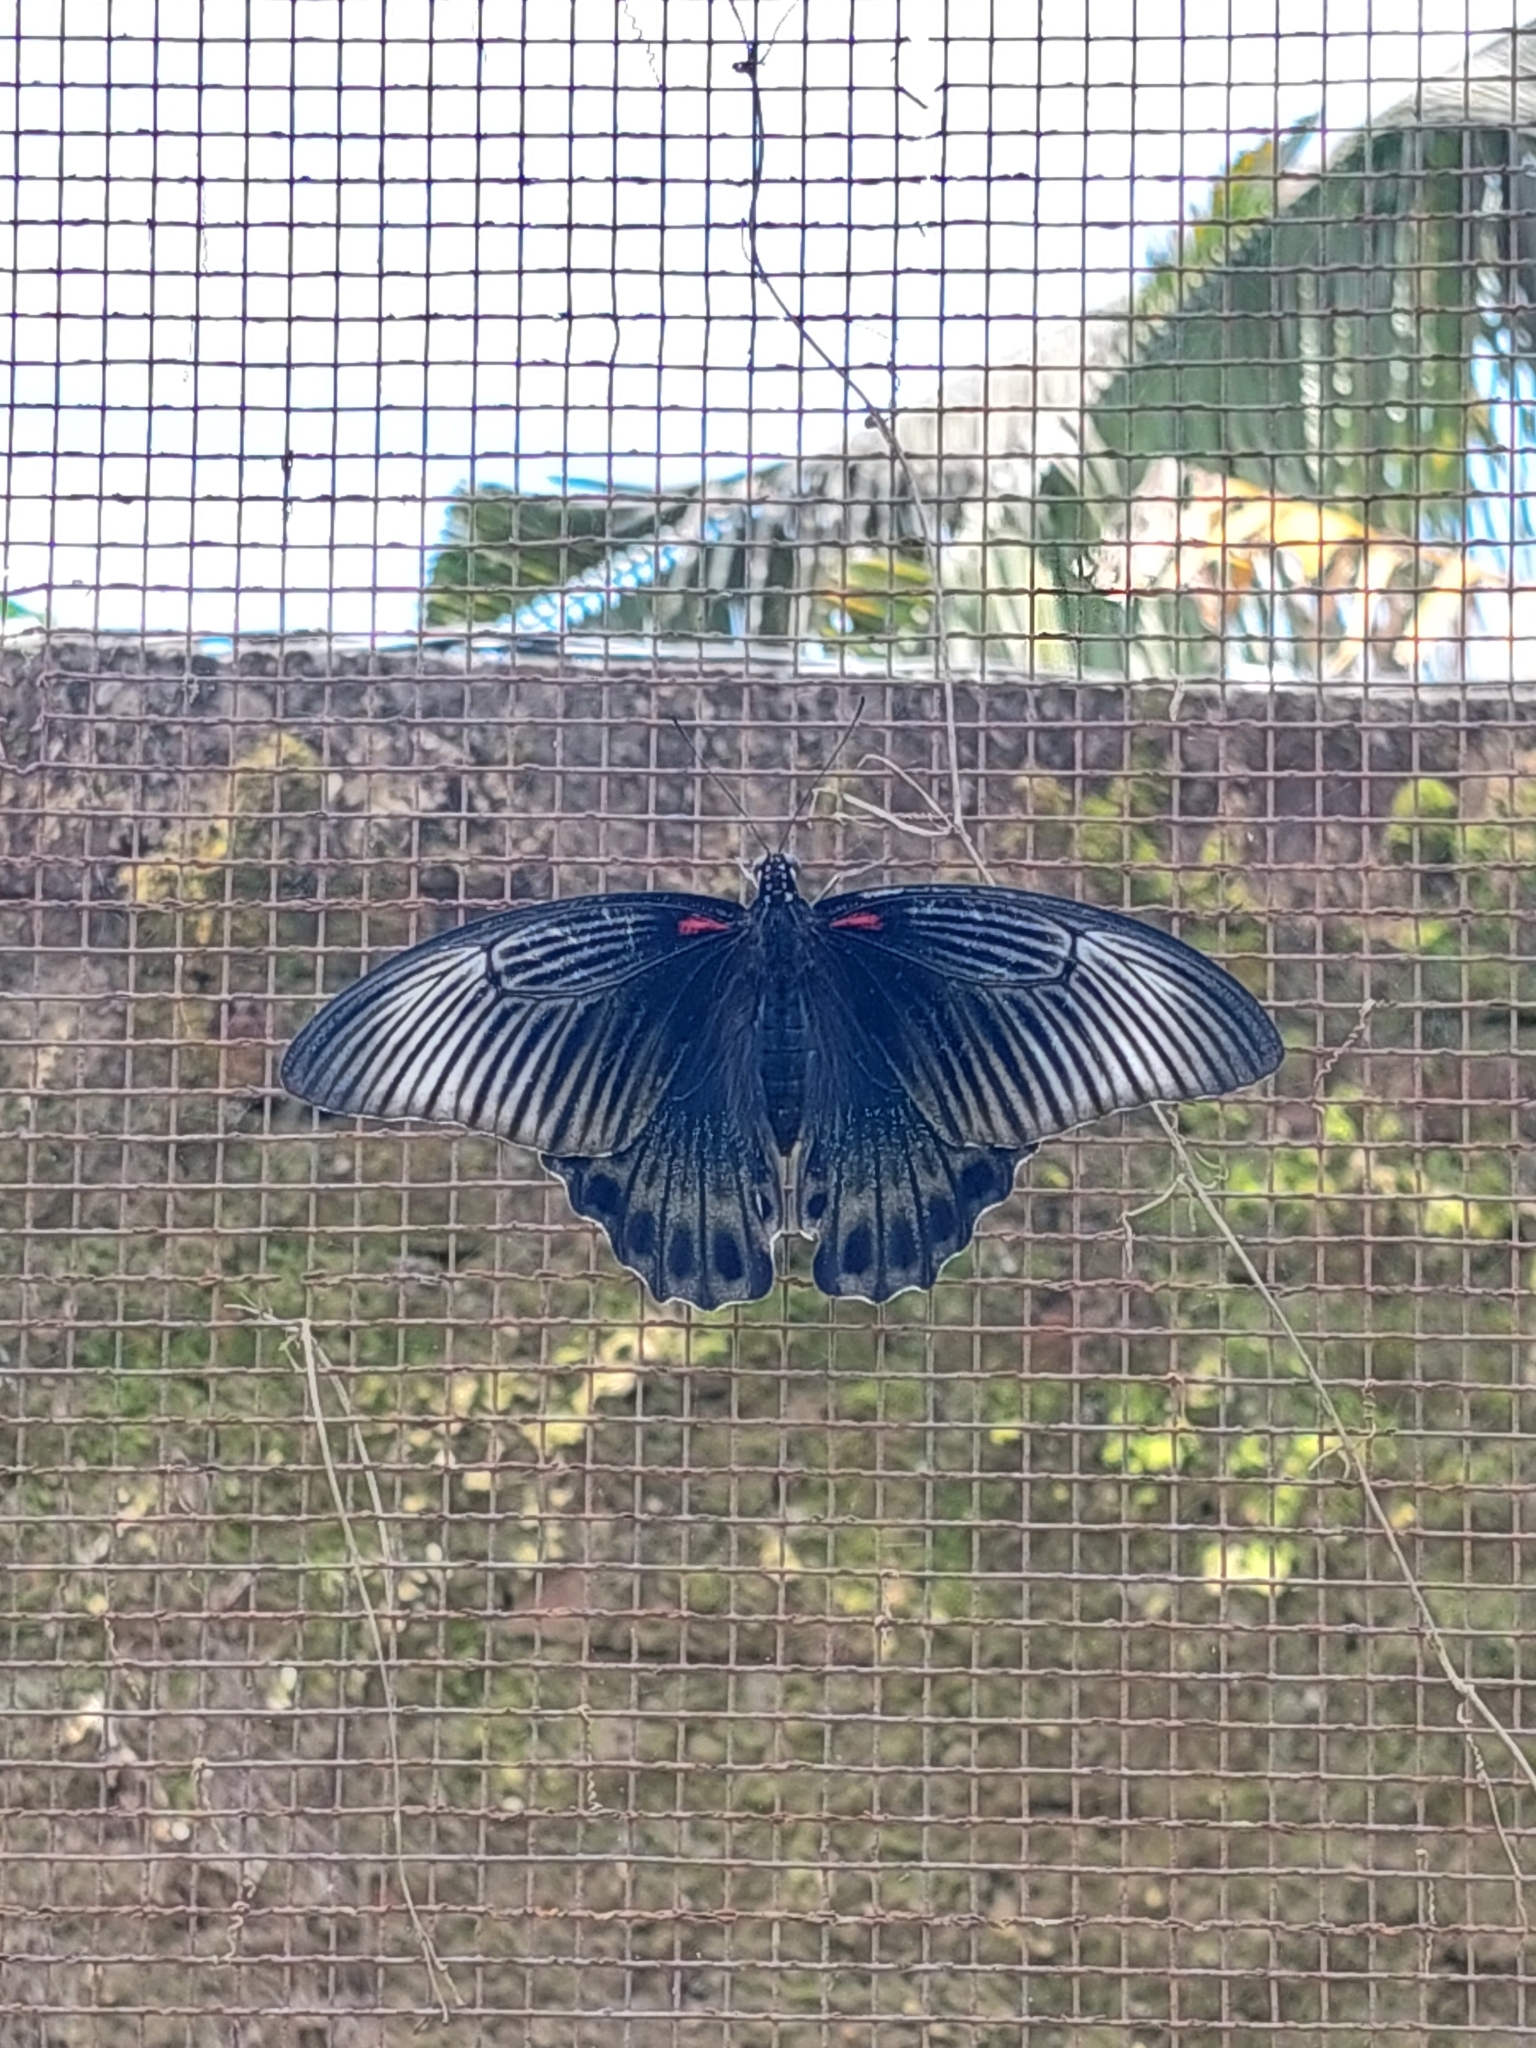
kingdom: Animalia
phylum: Arthropoda
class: Insecta
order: Lepidoptera
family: Papilionidae
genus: Papilio
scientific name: Papilio memnon
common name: Great mormon
